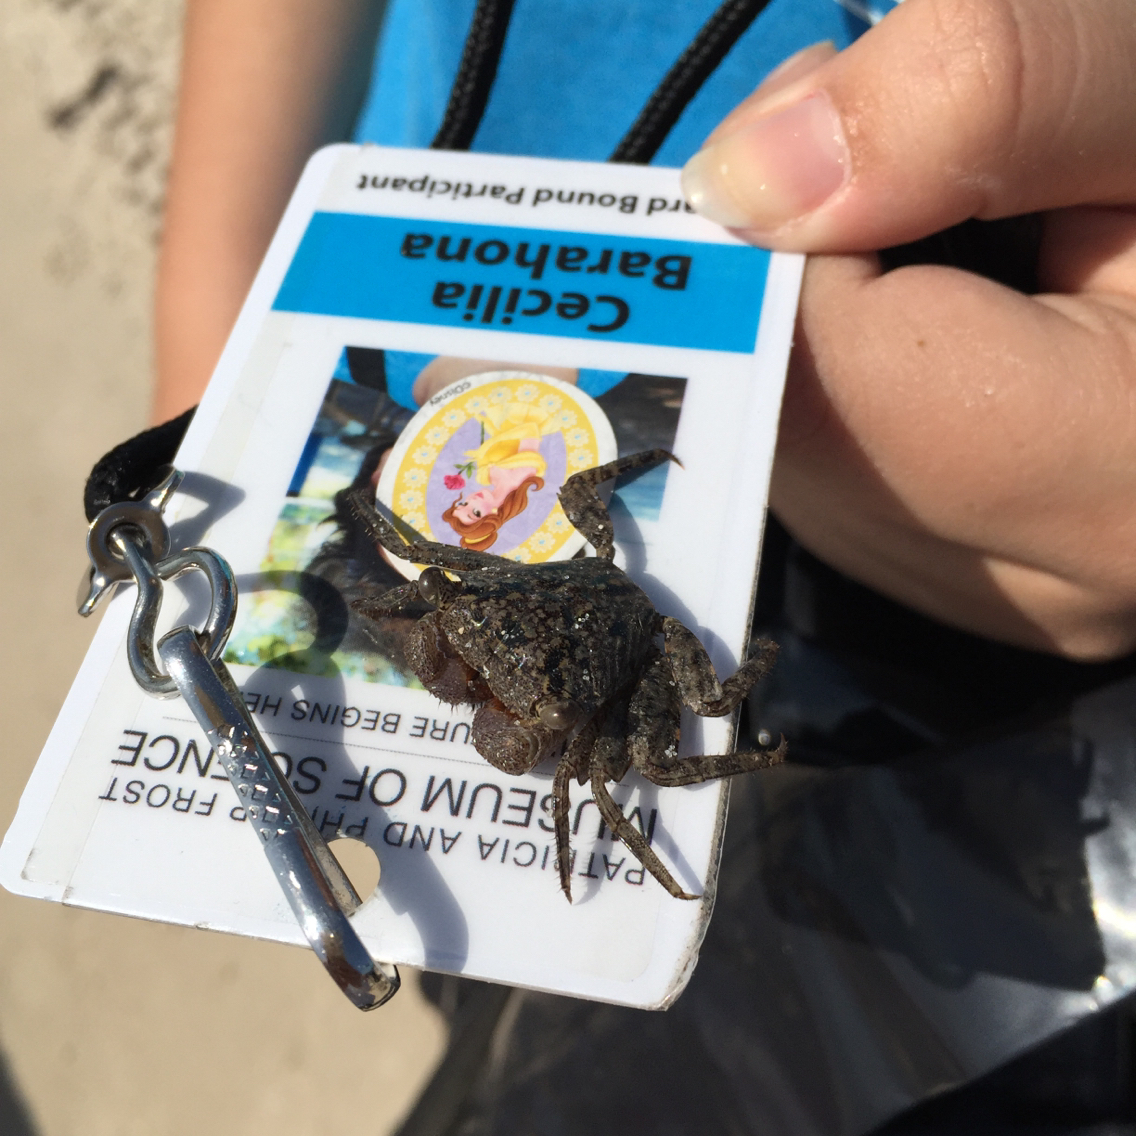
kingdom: Animalia
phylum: Arthropoda
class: Malacostraca
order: Decapoda
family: Sesarmidae
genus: Aratus
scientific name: Aratus pisonii
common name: Mangrove crab
